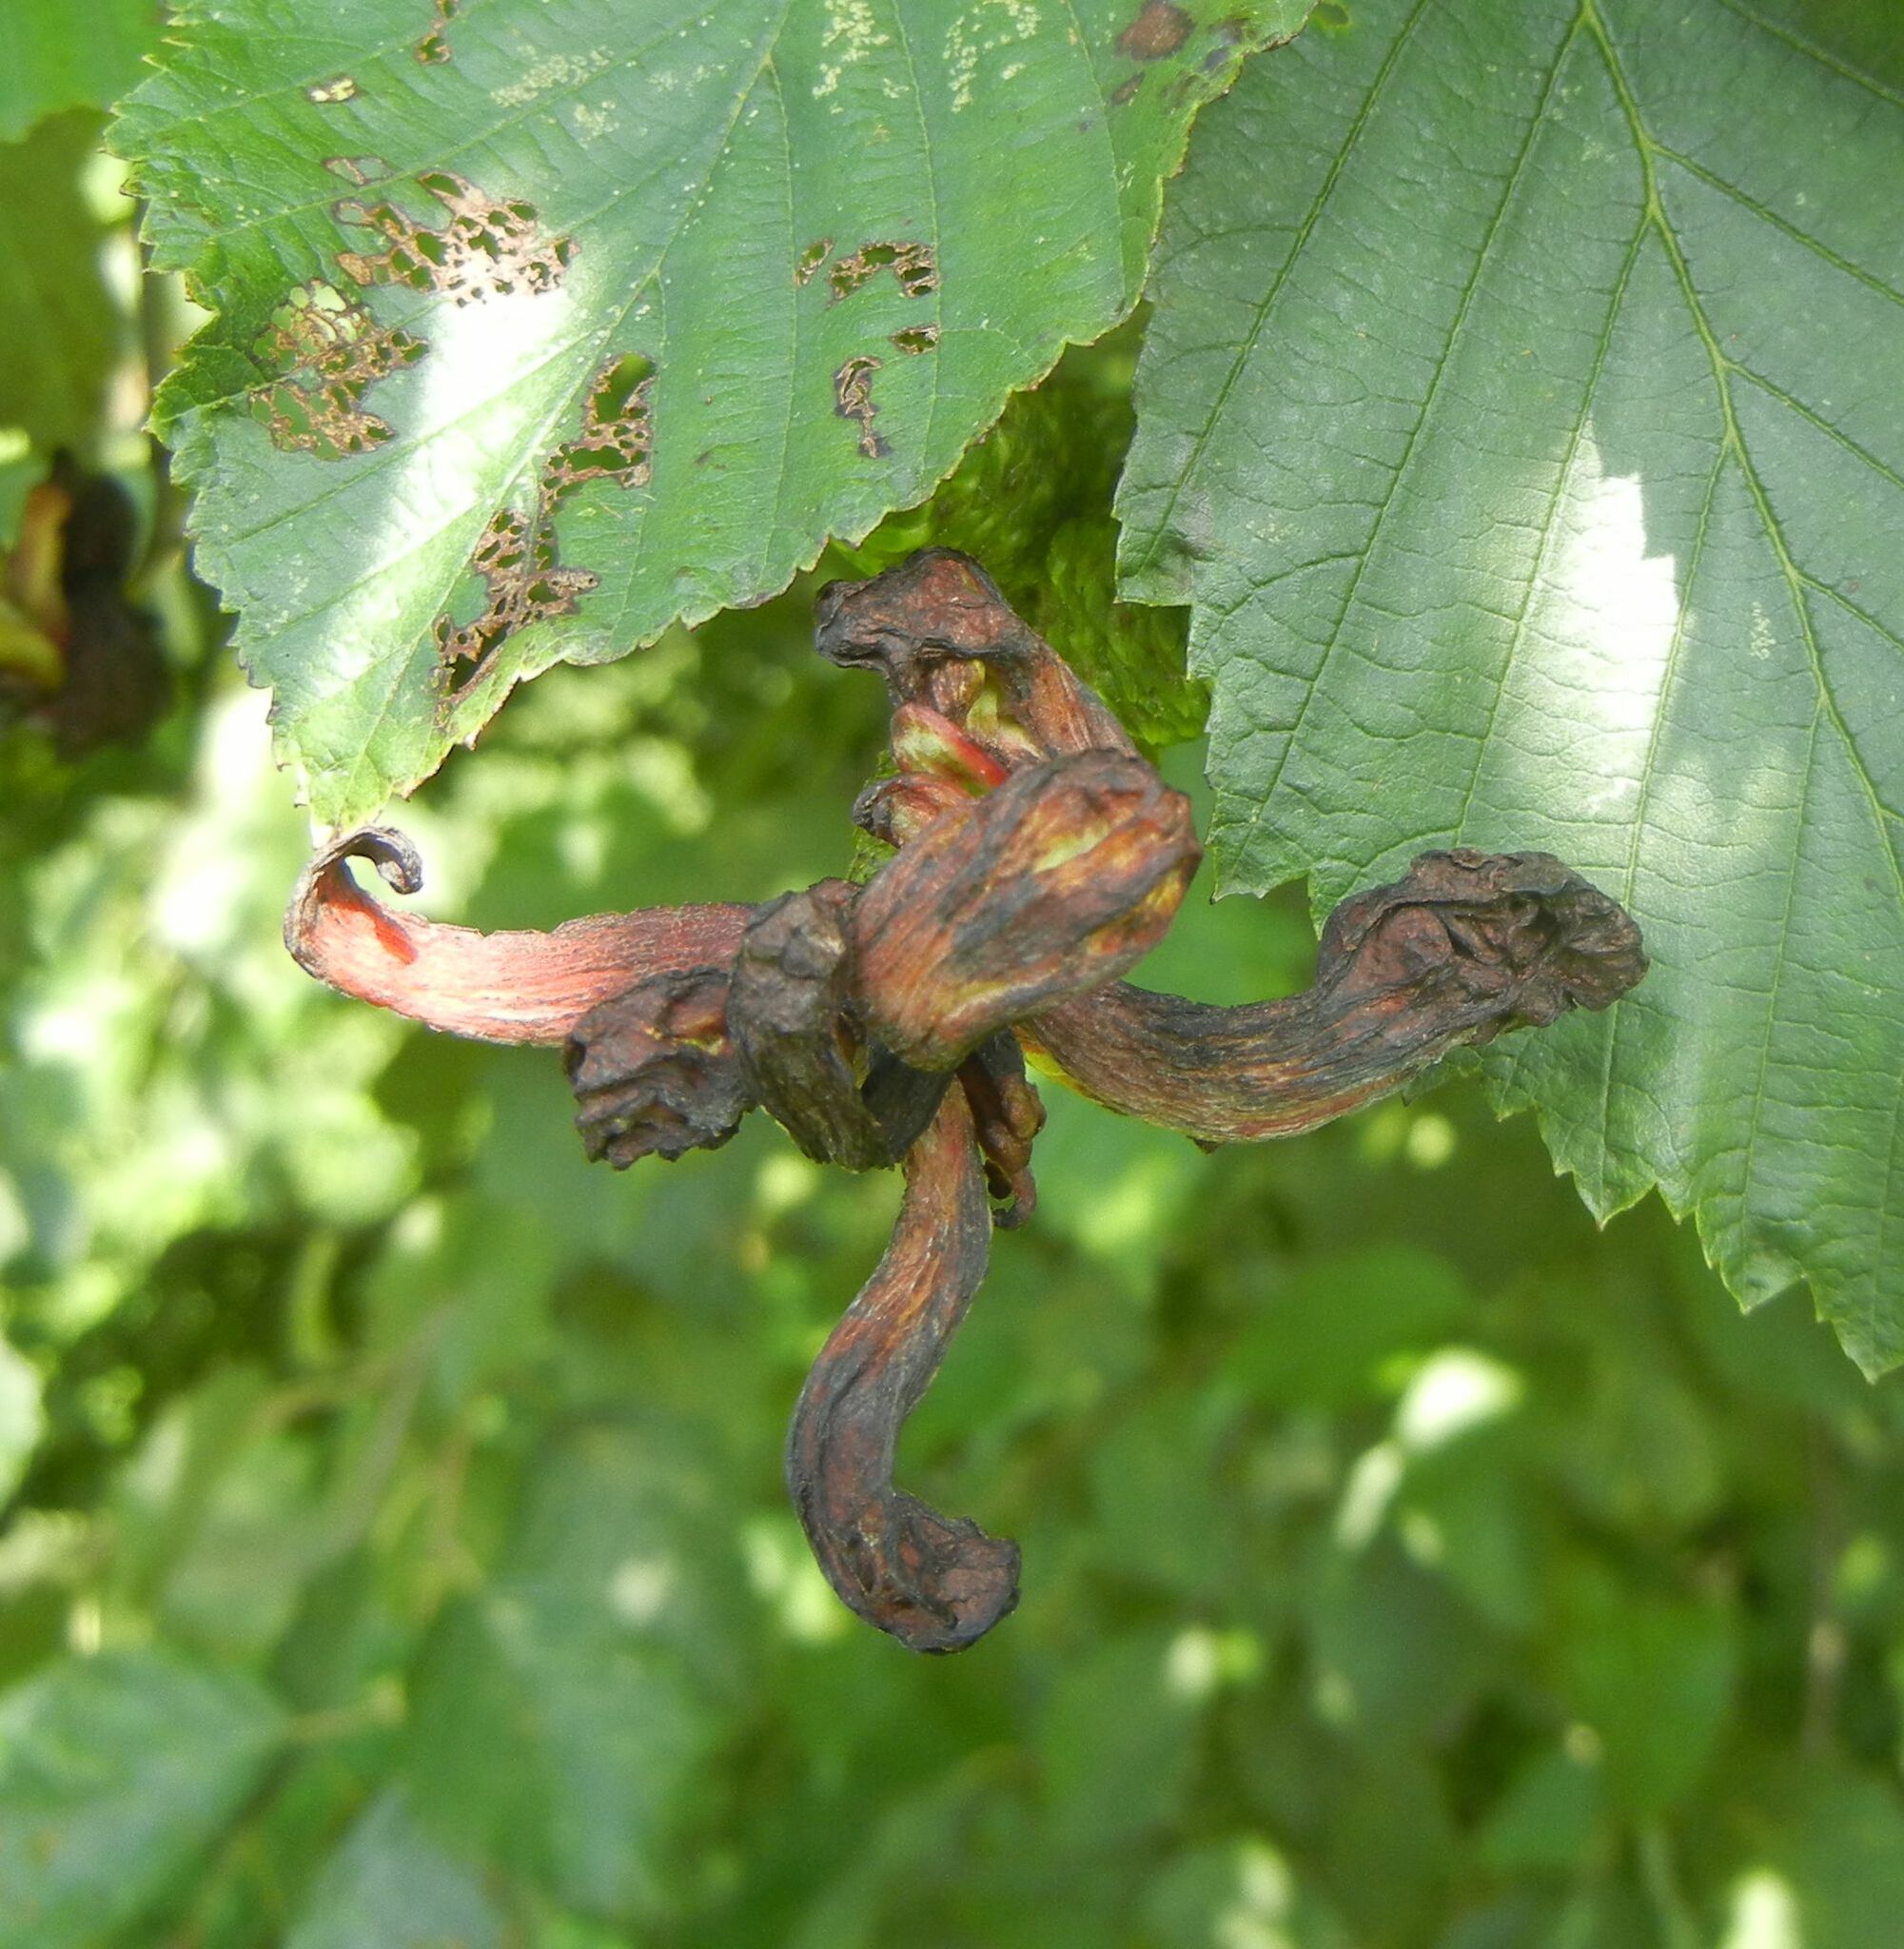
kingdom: Fungi
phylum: Ascomycota
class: Taphrinomycetes
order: Taphrinales
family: Taphrinaceae
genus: Taphrina
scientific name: Taphrina alni
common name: Alder tongue
